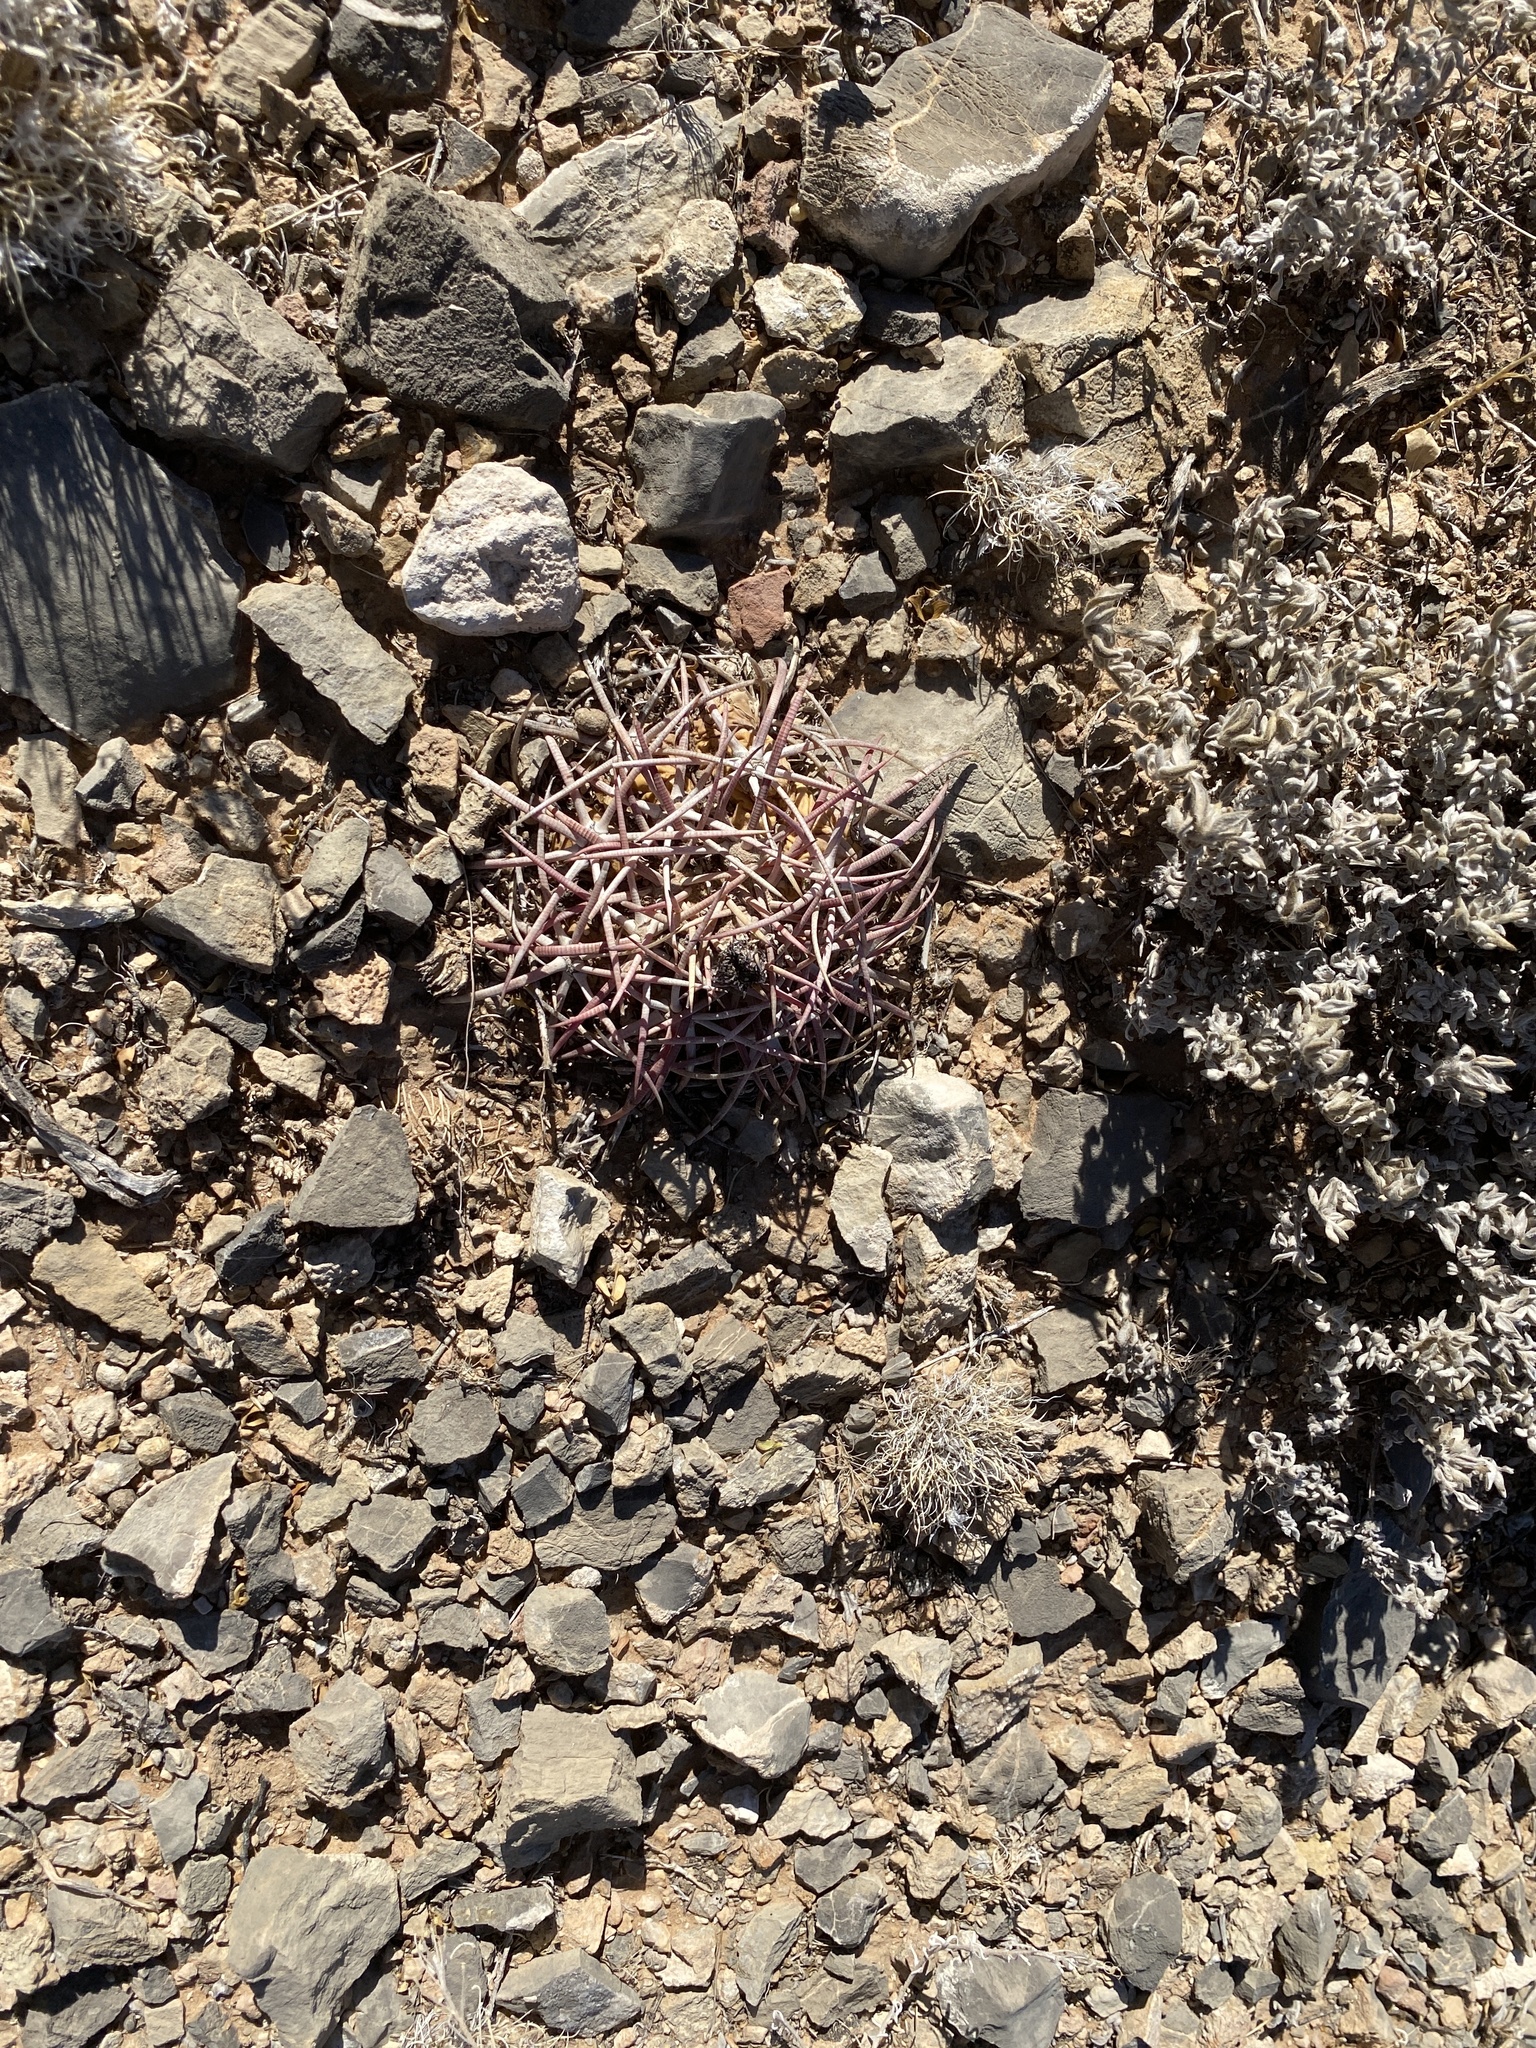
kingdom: Plantae
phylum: Tracheophyta
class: Magnoliopsida
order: Caryophyllales
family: Cactaceae
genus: Echinocactus
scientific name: Echinocactus horizonthalonius
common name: Devilshead
